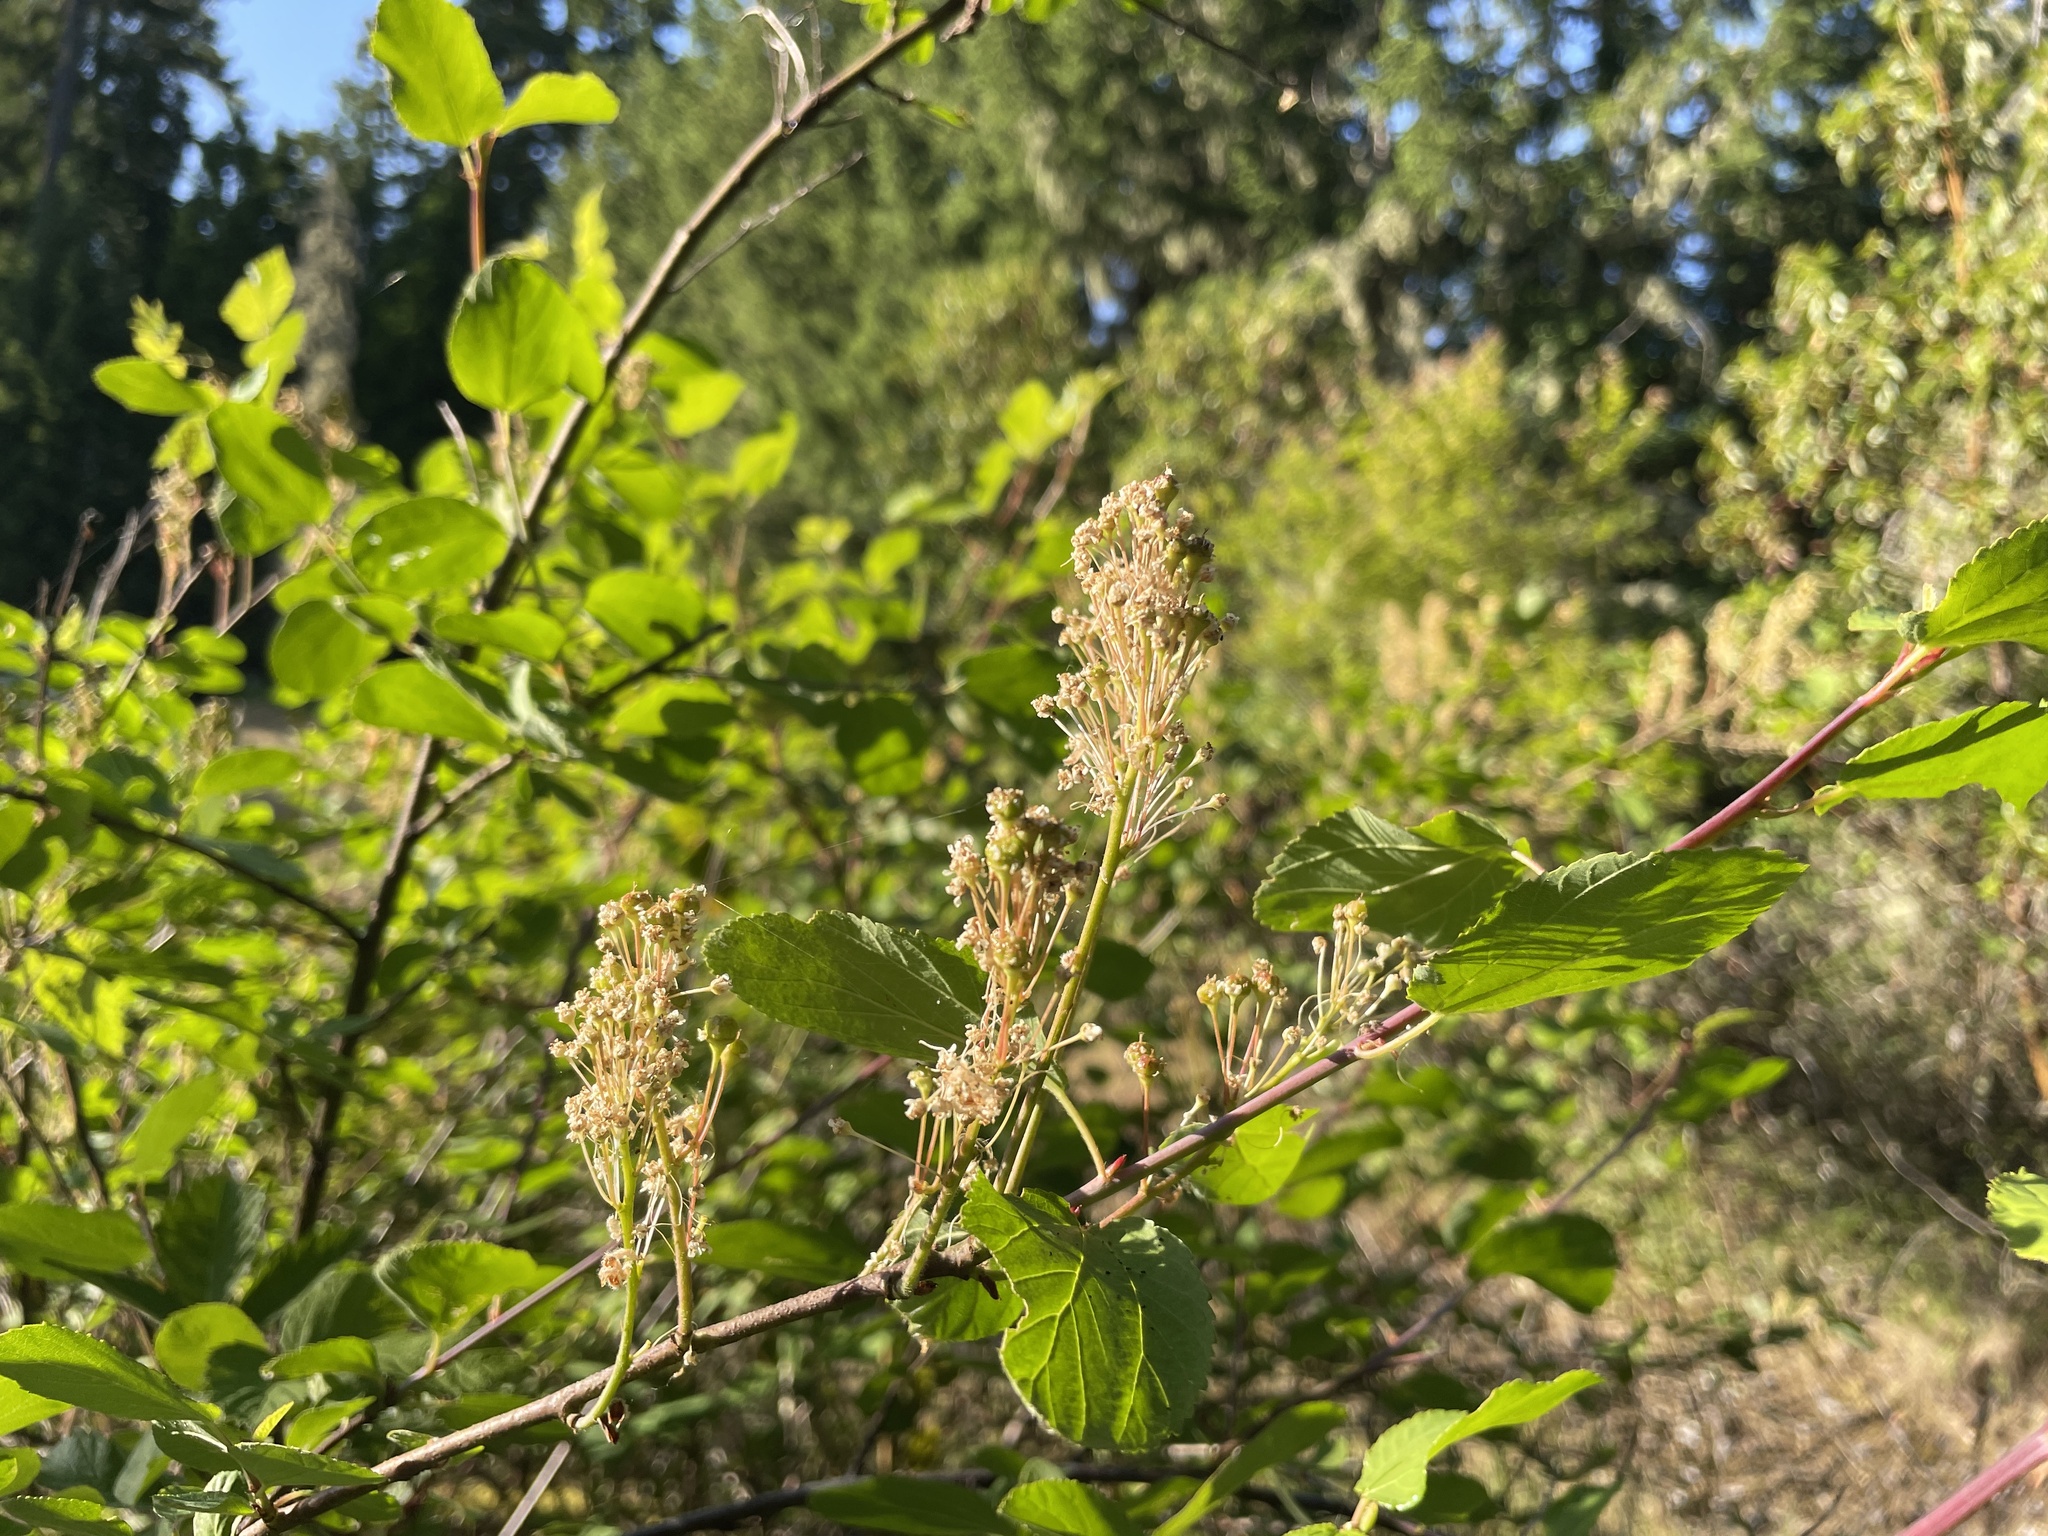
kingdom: Plantae
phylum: Tracheophyta
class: Magnoliopsida
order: Rosales
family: Rhamnaceae
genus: Ceanothus
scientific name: Ceanothus sanguineus
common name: Teatree
